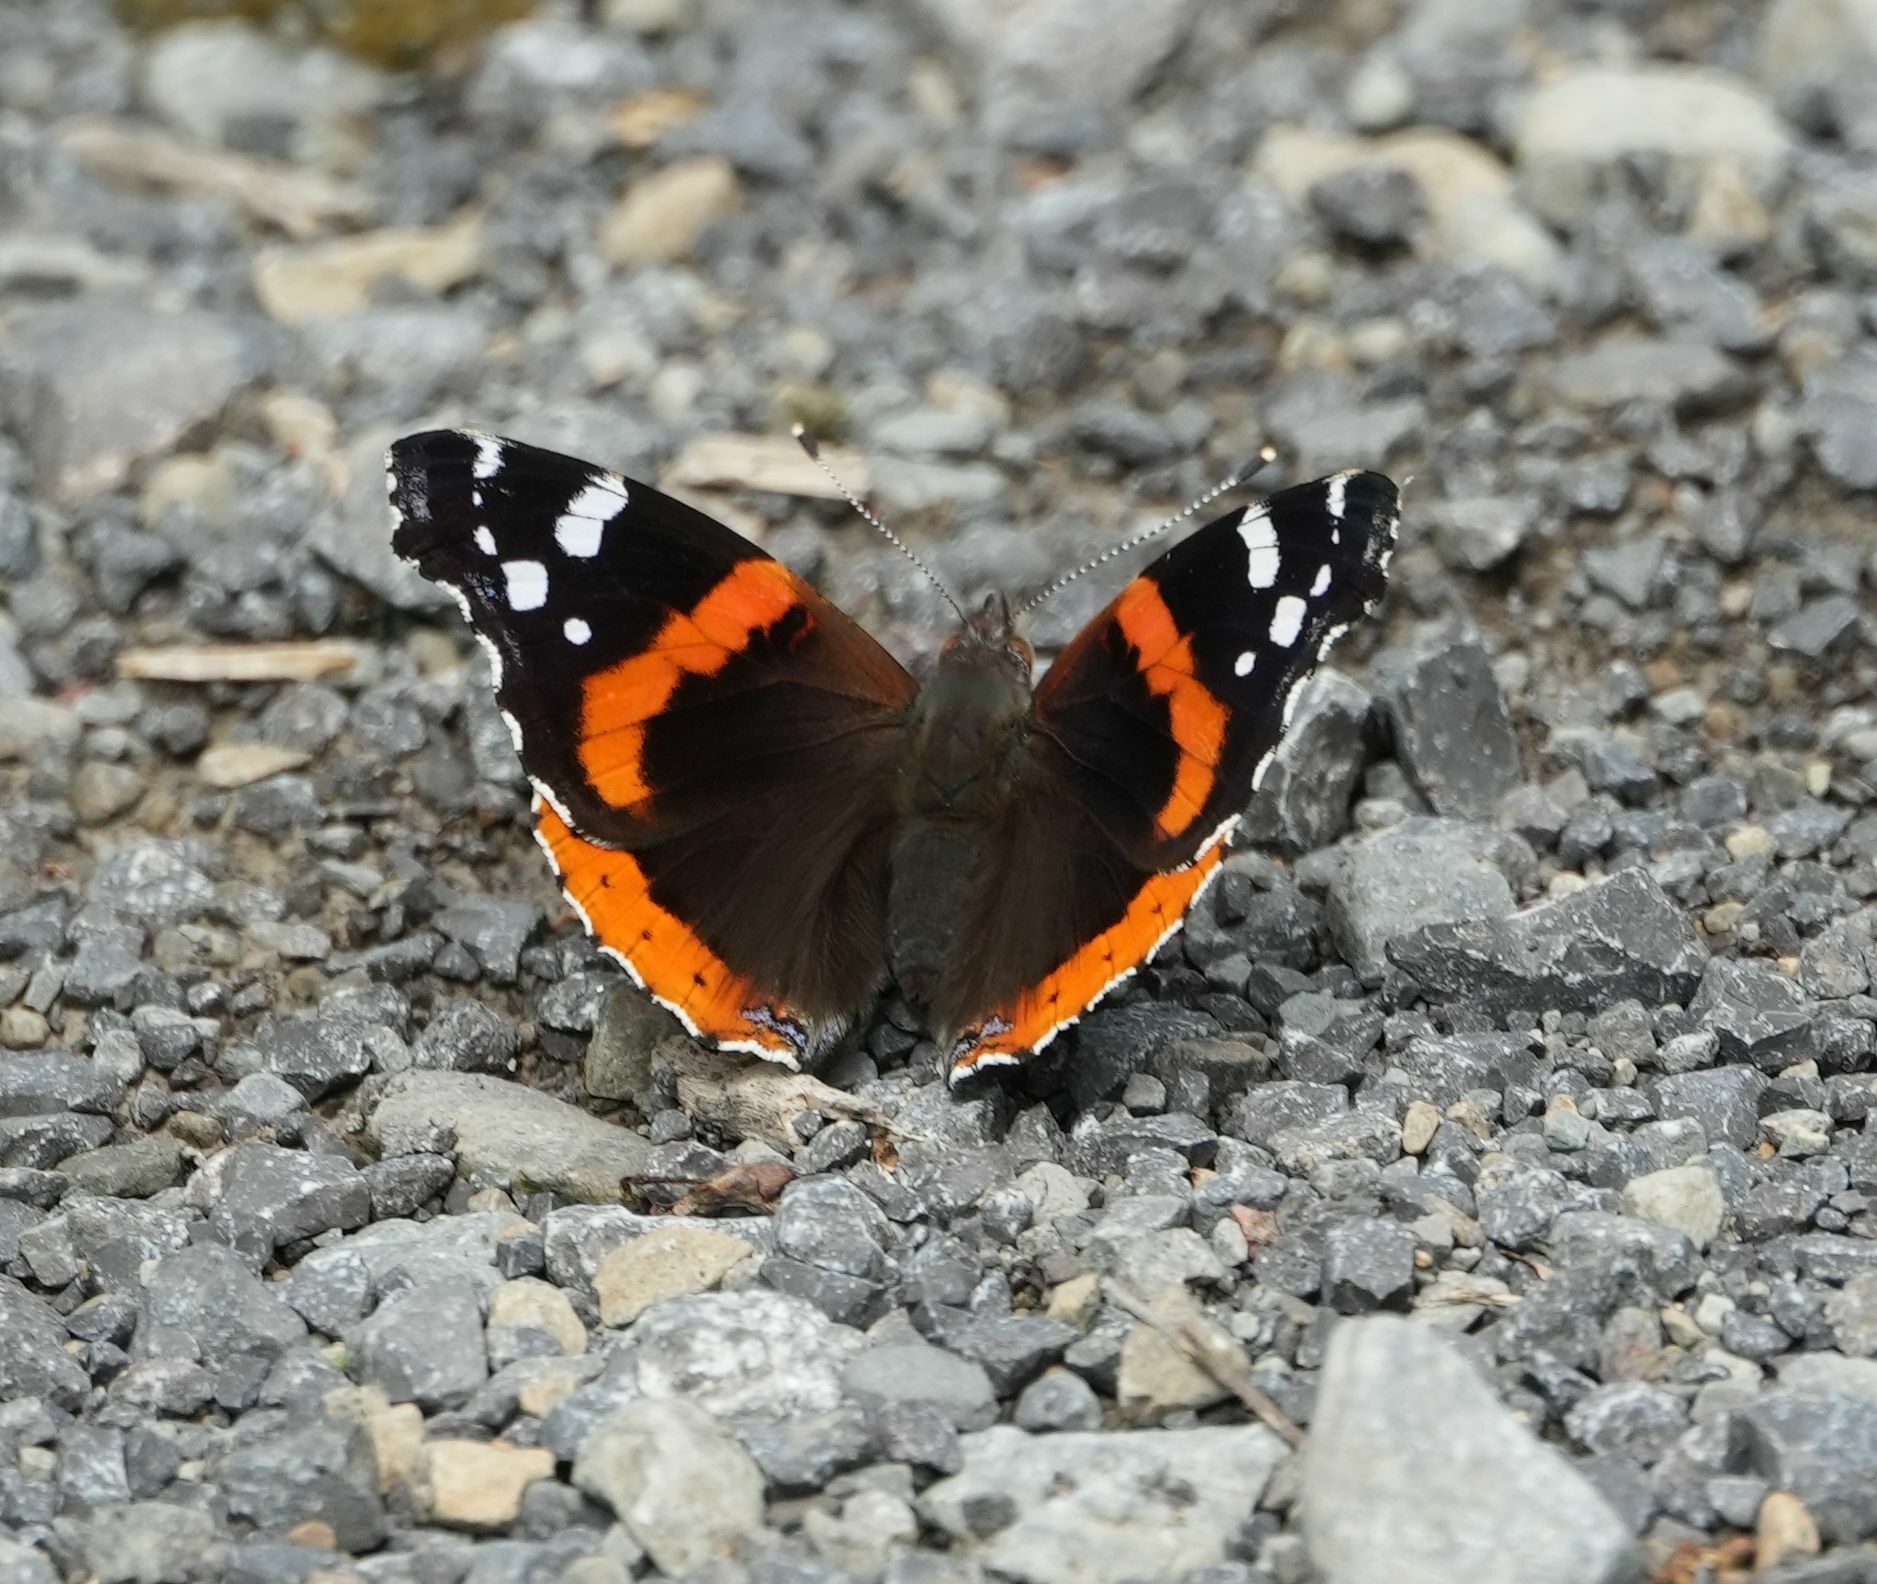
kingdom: Animalia
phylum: Arthropoda
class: Insecta
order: Lepidoptera
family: Nymphalidae
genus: Vanessa
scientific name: Vanessa atalanta
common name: Red admiral
